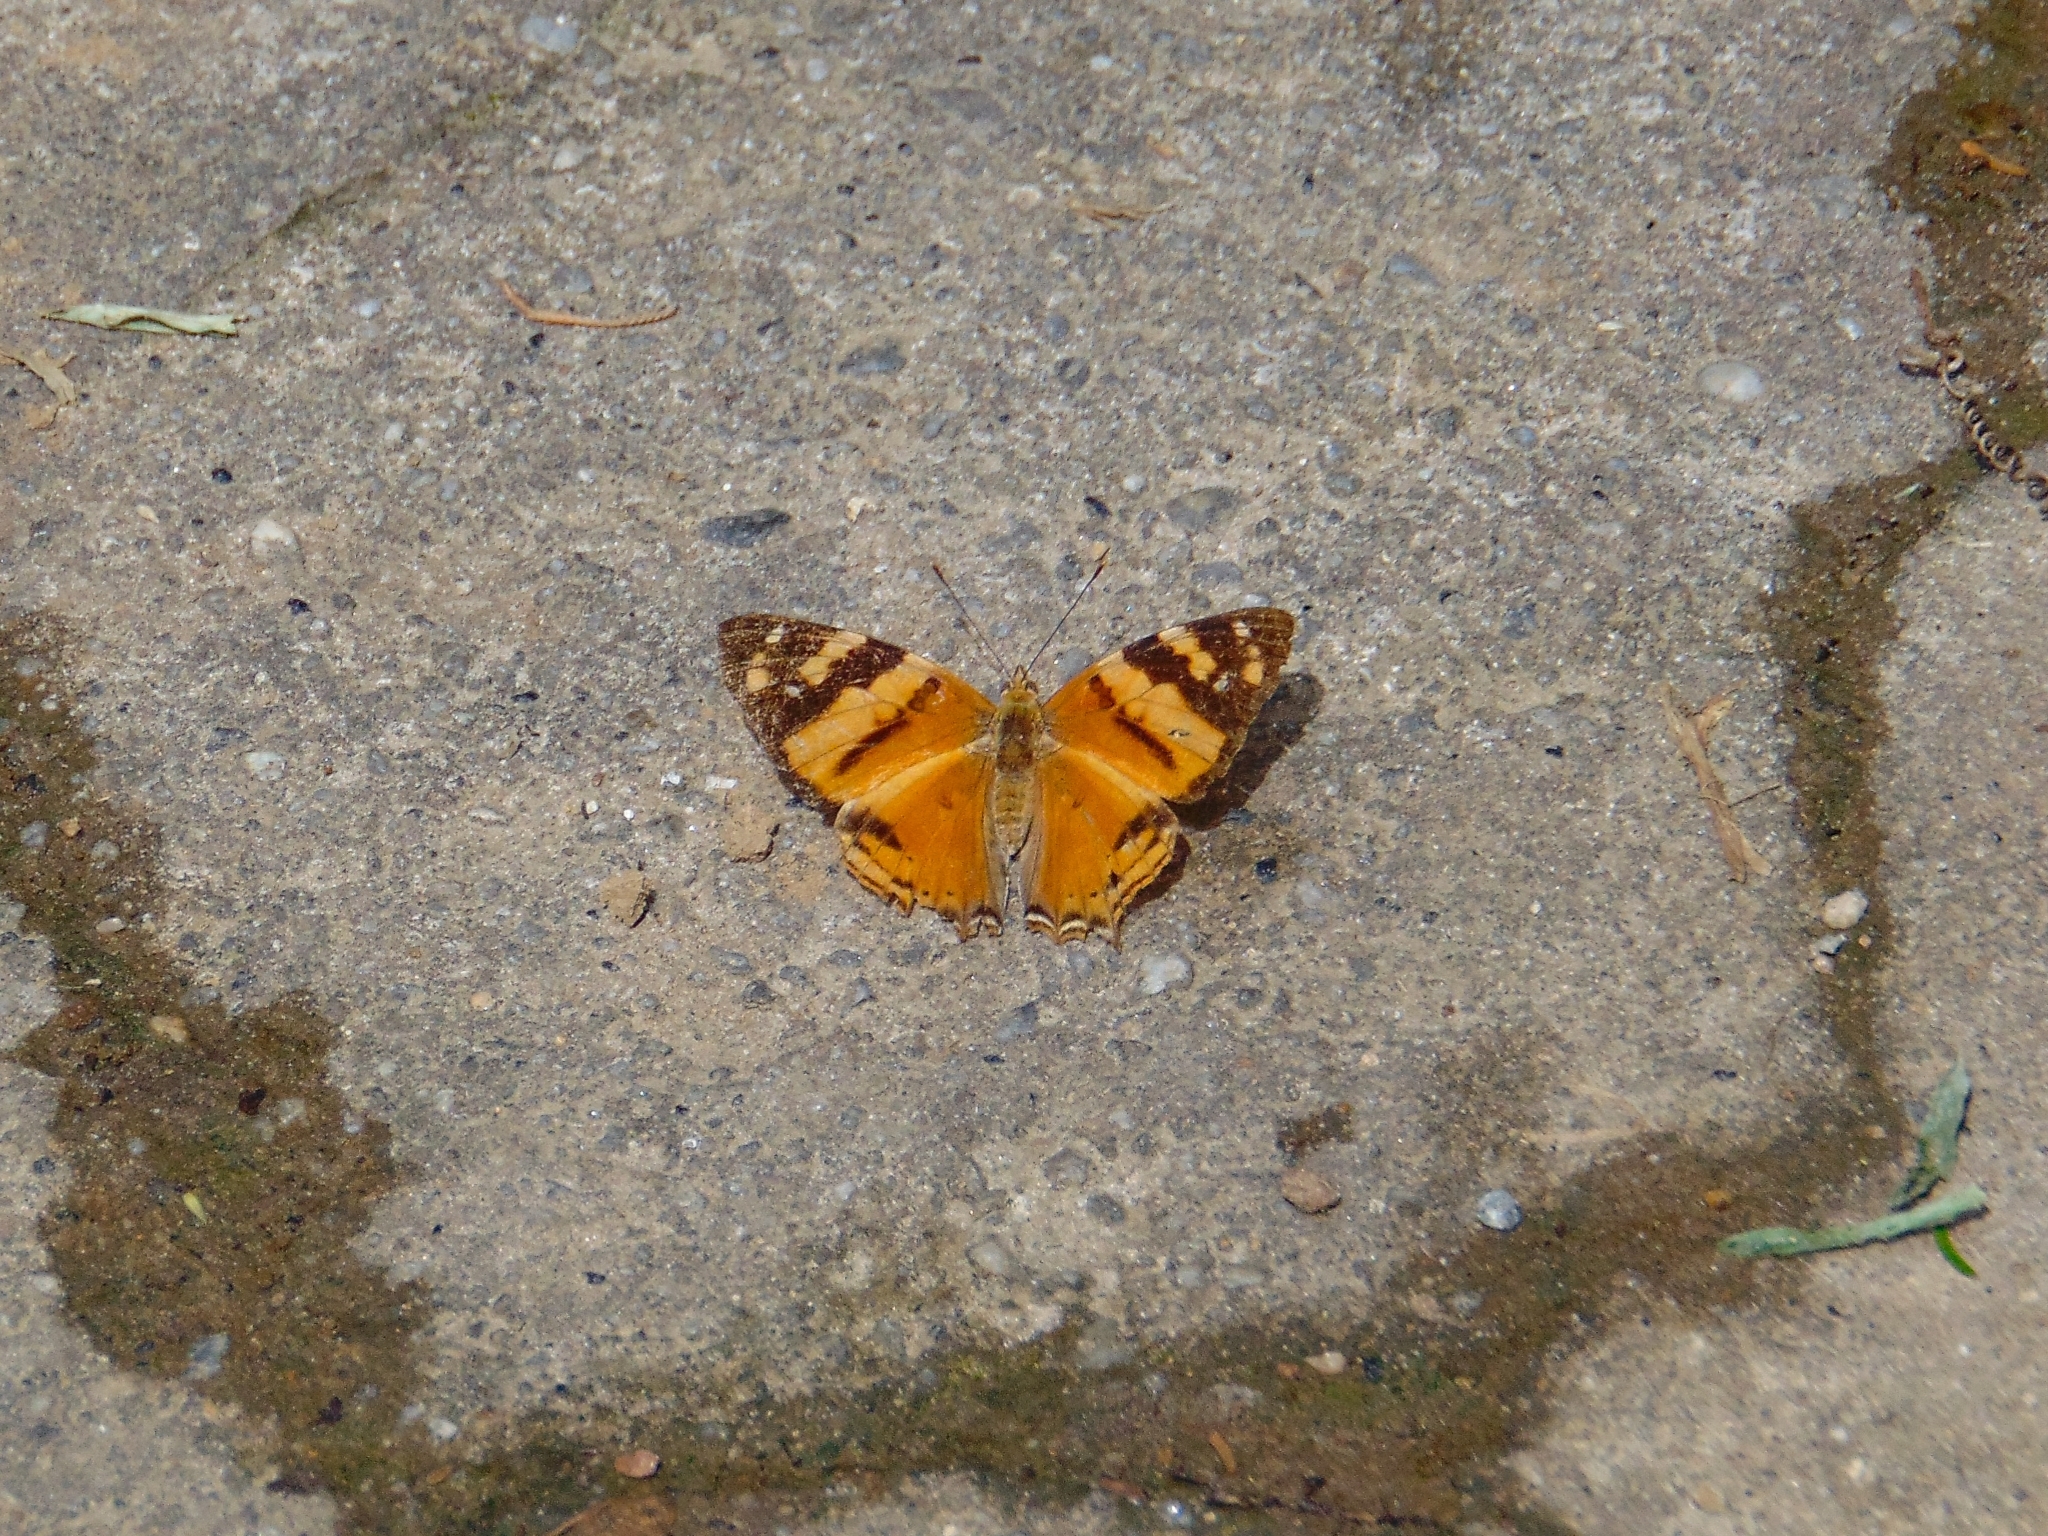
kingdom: Animalia
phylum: Arthropoda
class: Insecta
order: Lepidoptera
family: Nymphalidae
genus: Hypanartia
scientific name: Hypanartia lethe
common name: Orange mapwing
